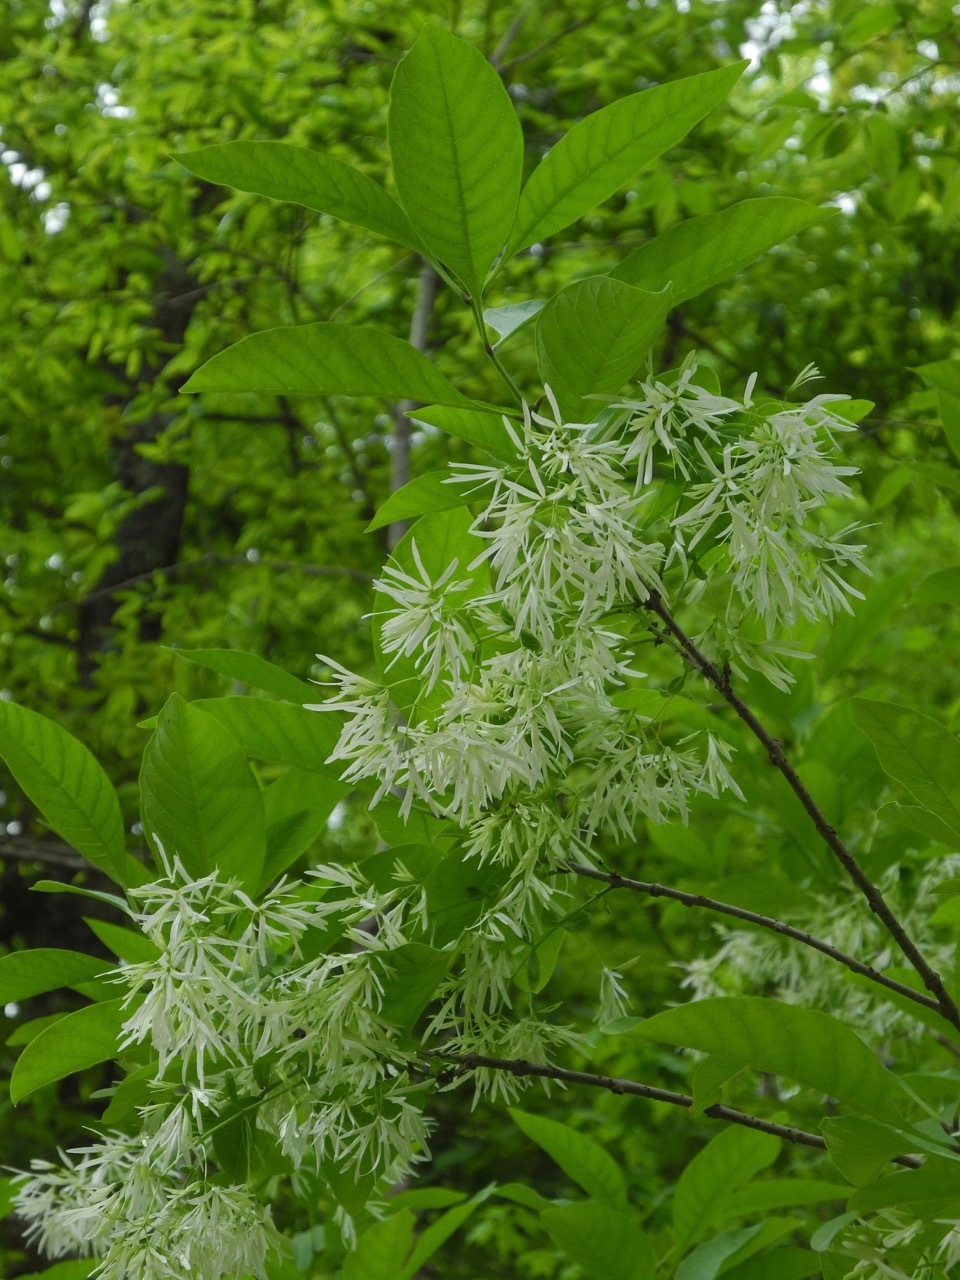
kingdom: Plantae
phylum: Tracheophyta
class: Magnoliopsida
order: Lamiales
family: Oleaceae
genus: Chionanthus
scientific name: Chionanthus virginicus
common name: American fringetree
